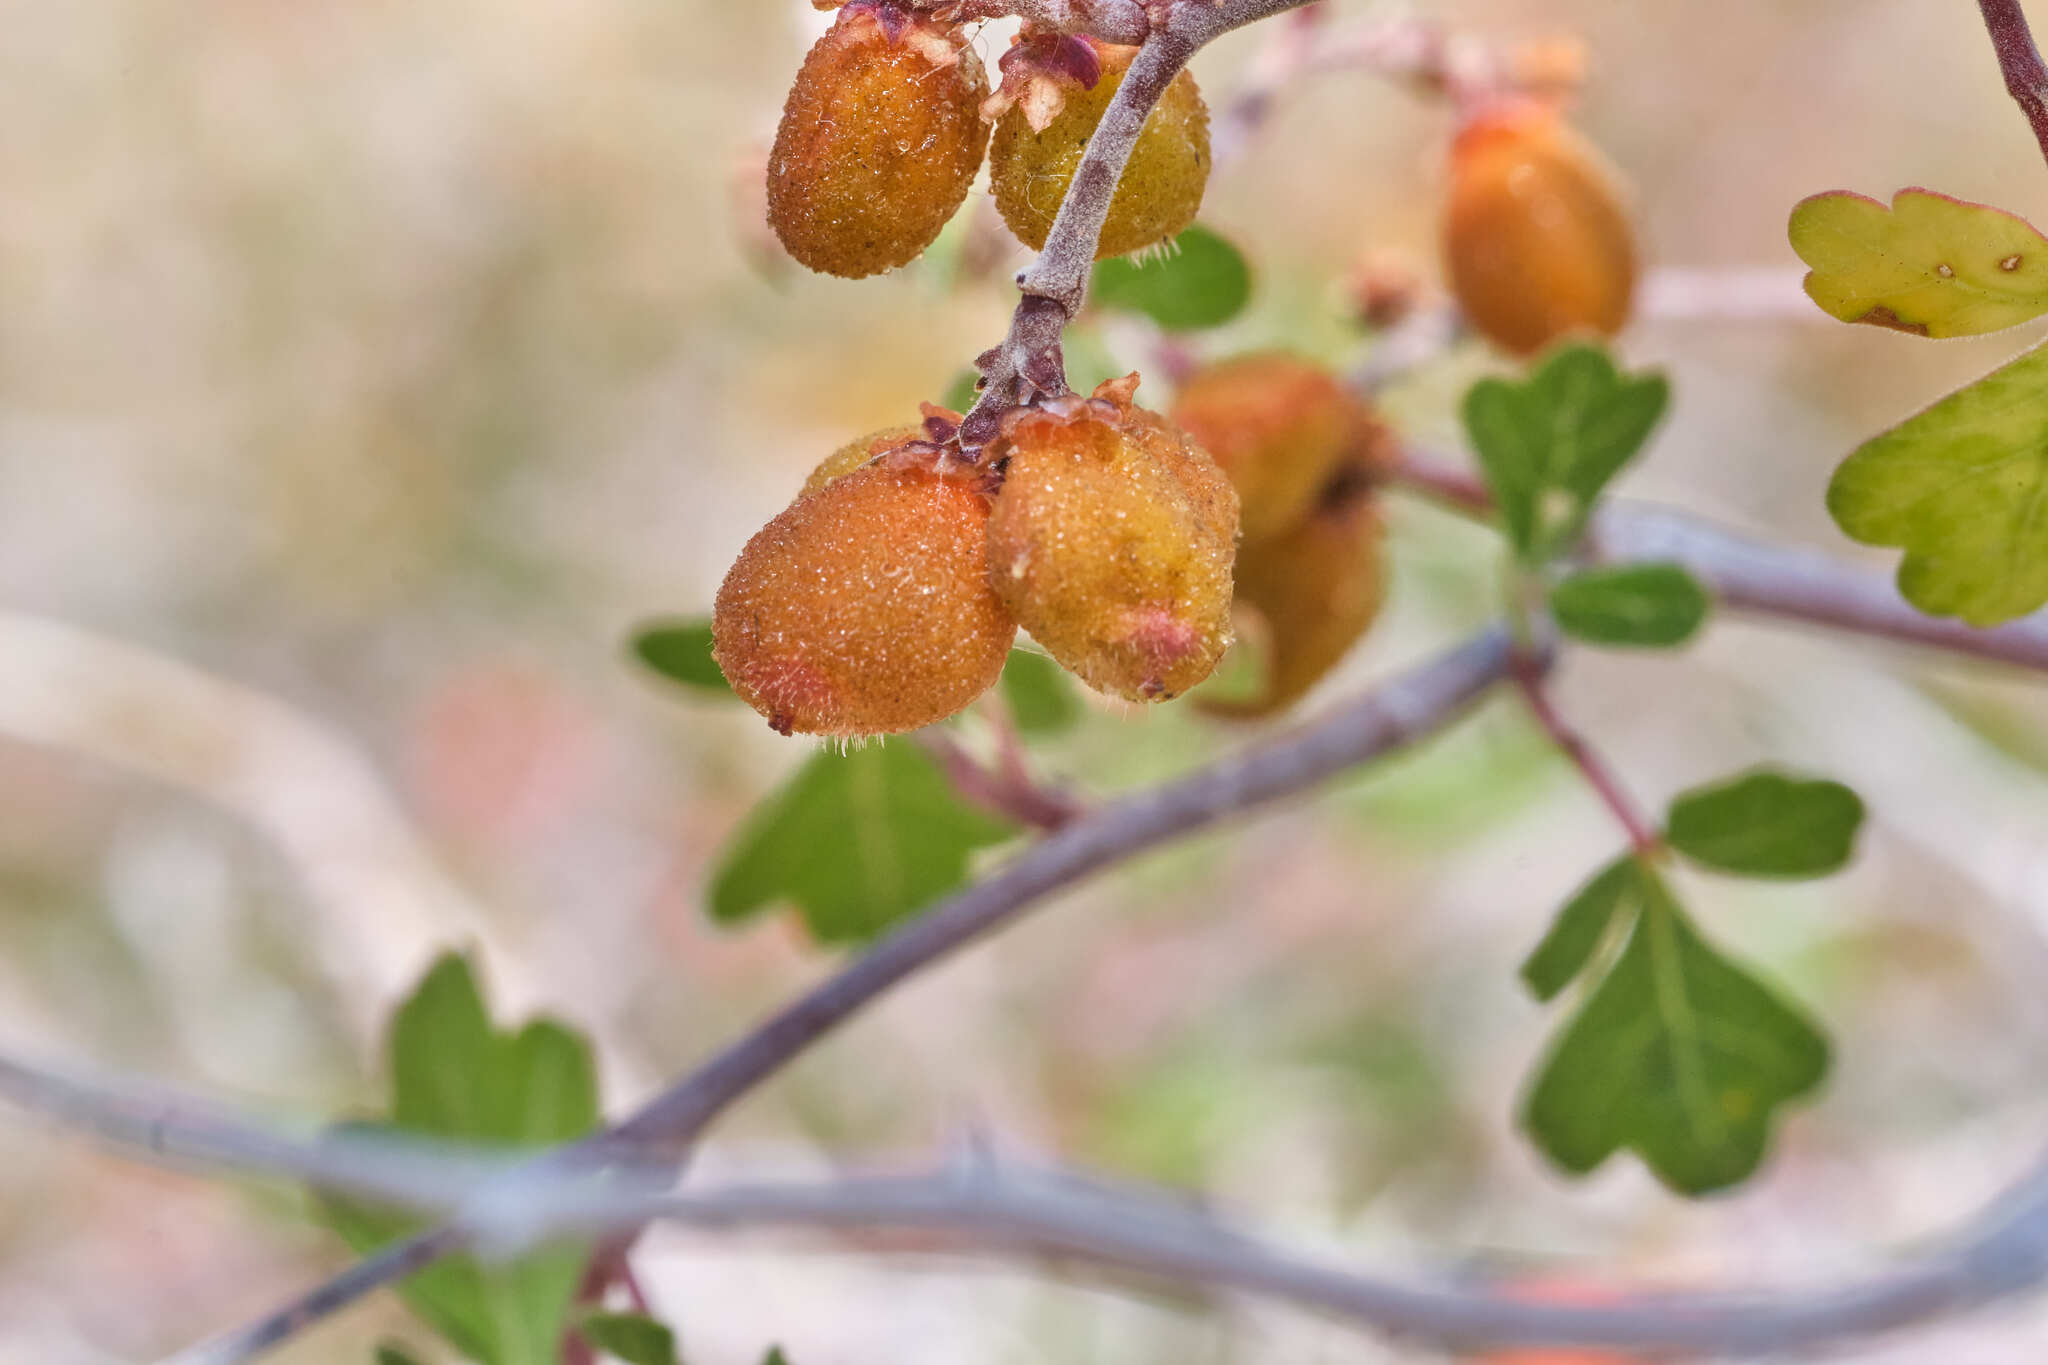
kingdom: Plantae
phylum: Tracheophyta
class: Magnoliopsida
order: Sapindales
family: Anacardiaceae
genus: Rhus
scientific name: Rhus trilobata
